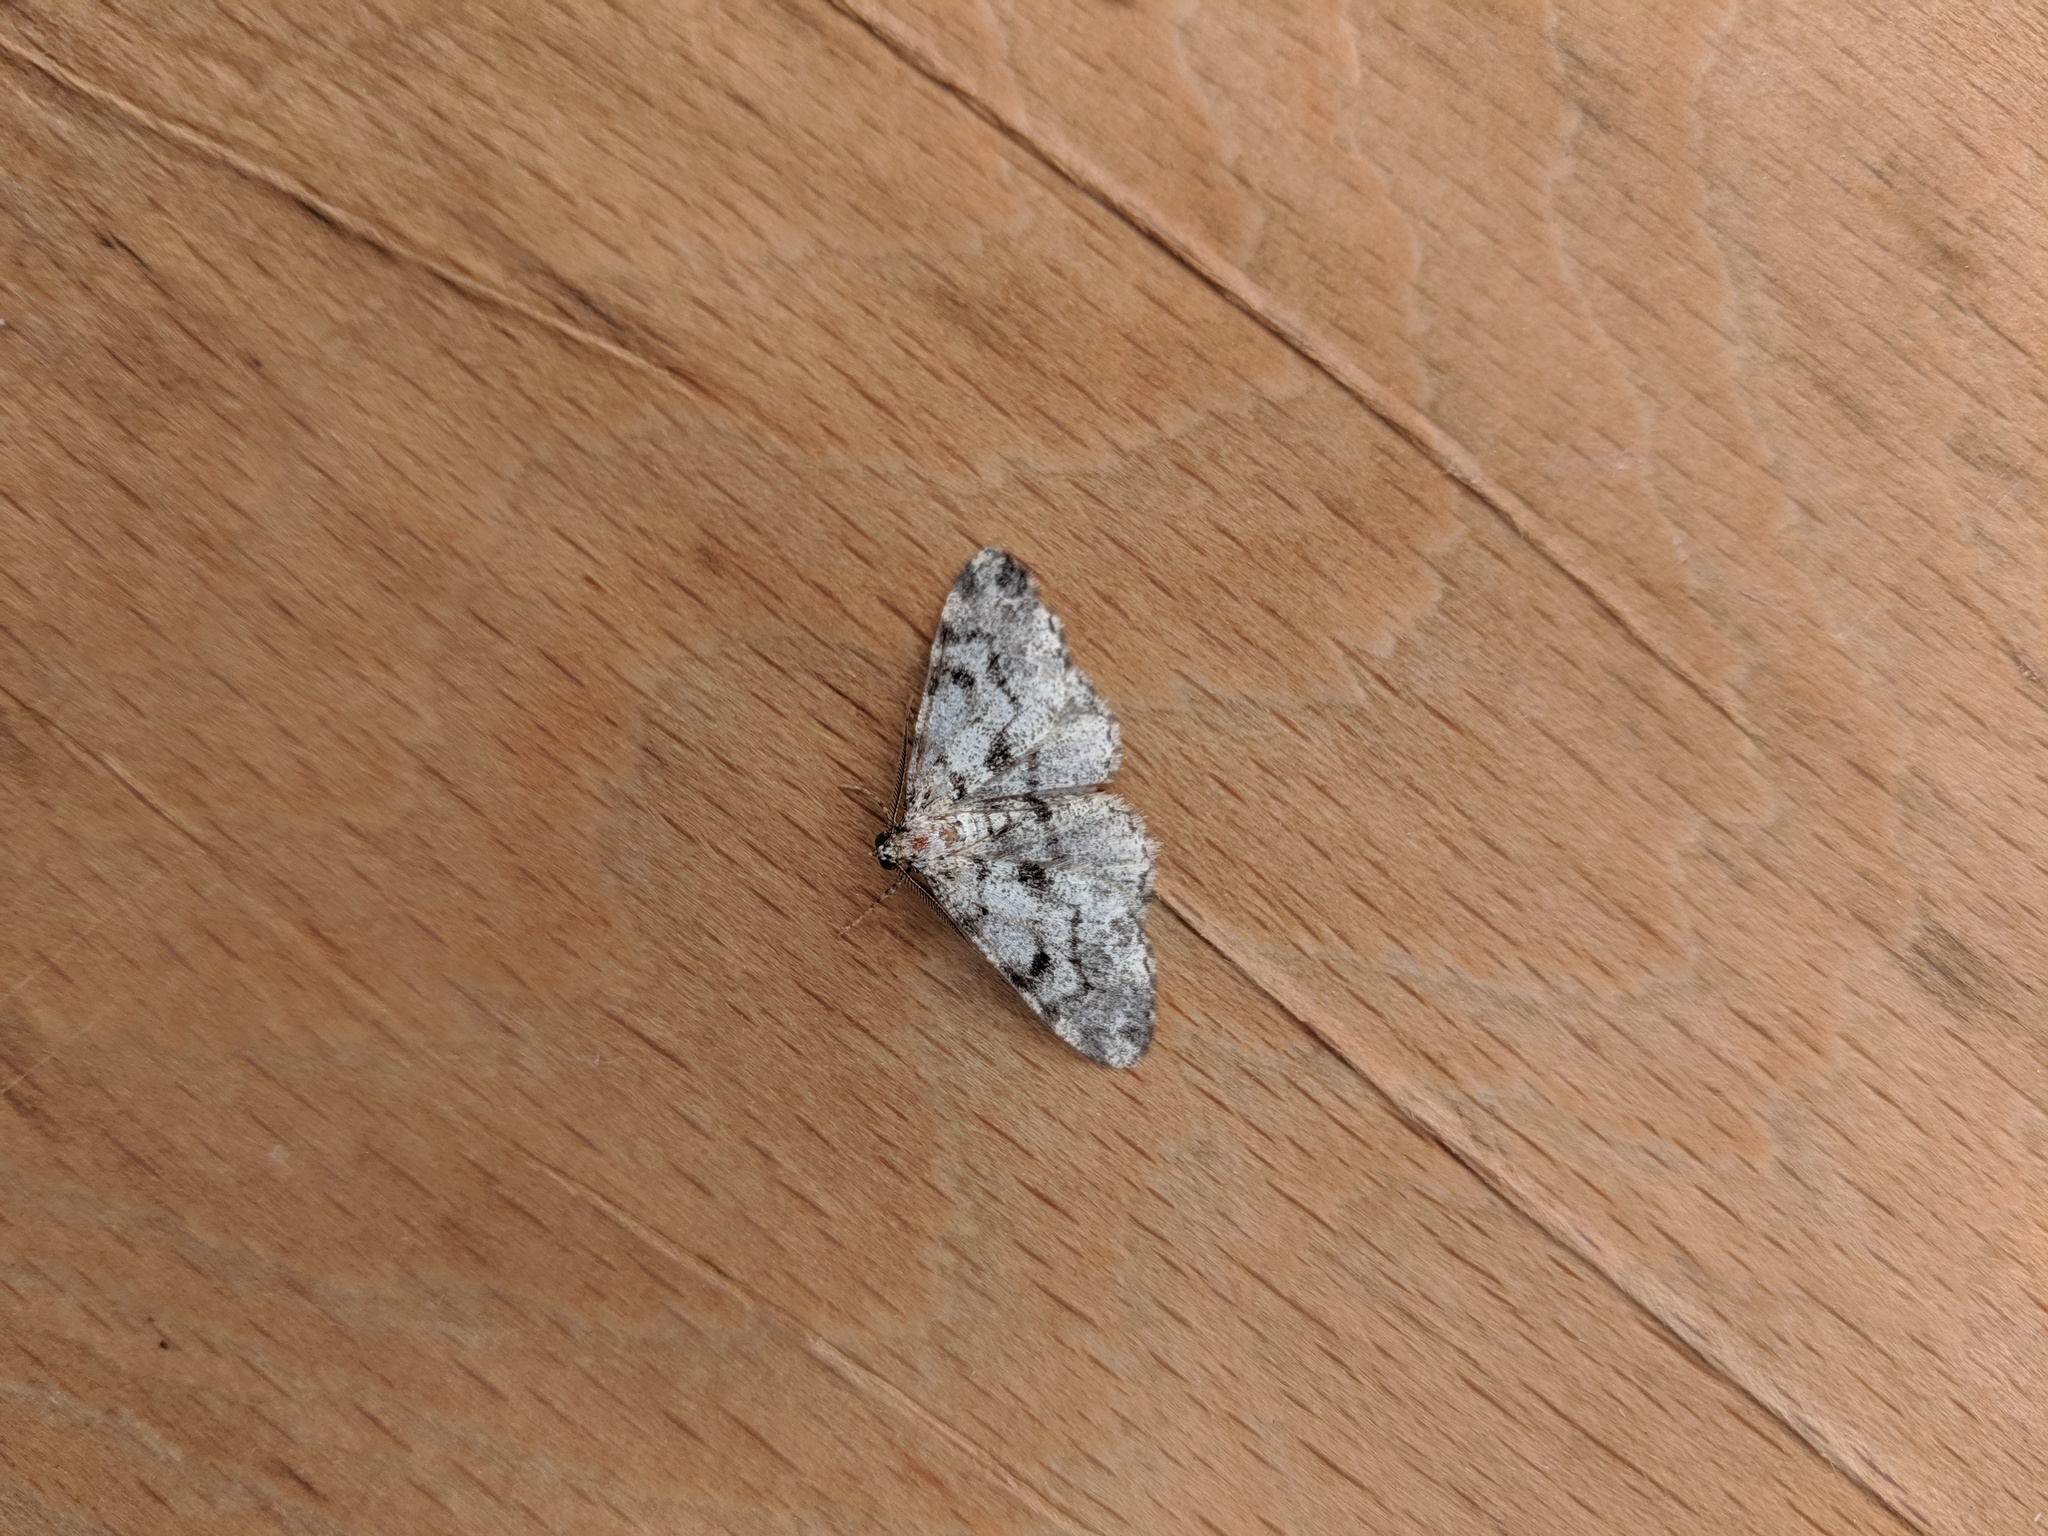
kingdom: Animalia
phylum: Arthropoda
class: Insecta
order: Lepidoptera
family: Geometridae
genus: Alcis
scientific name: Alcis jubata
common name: Dotted carpet
